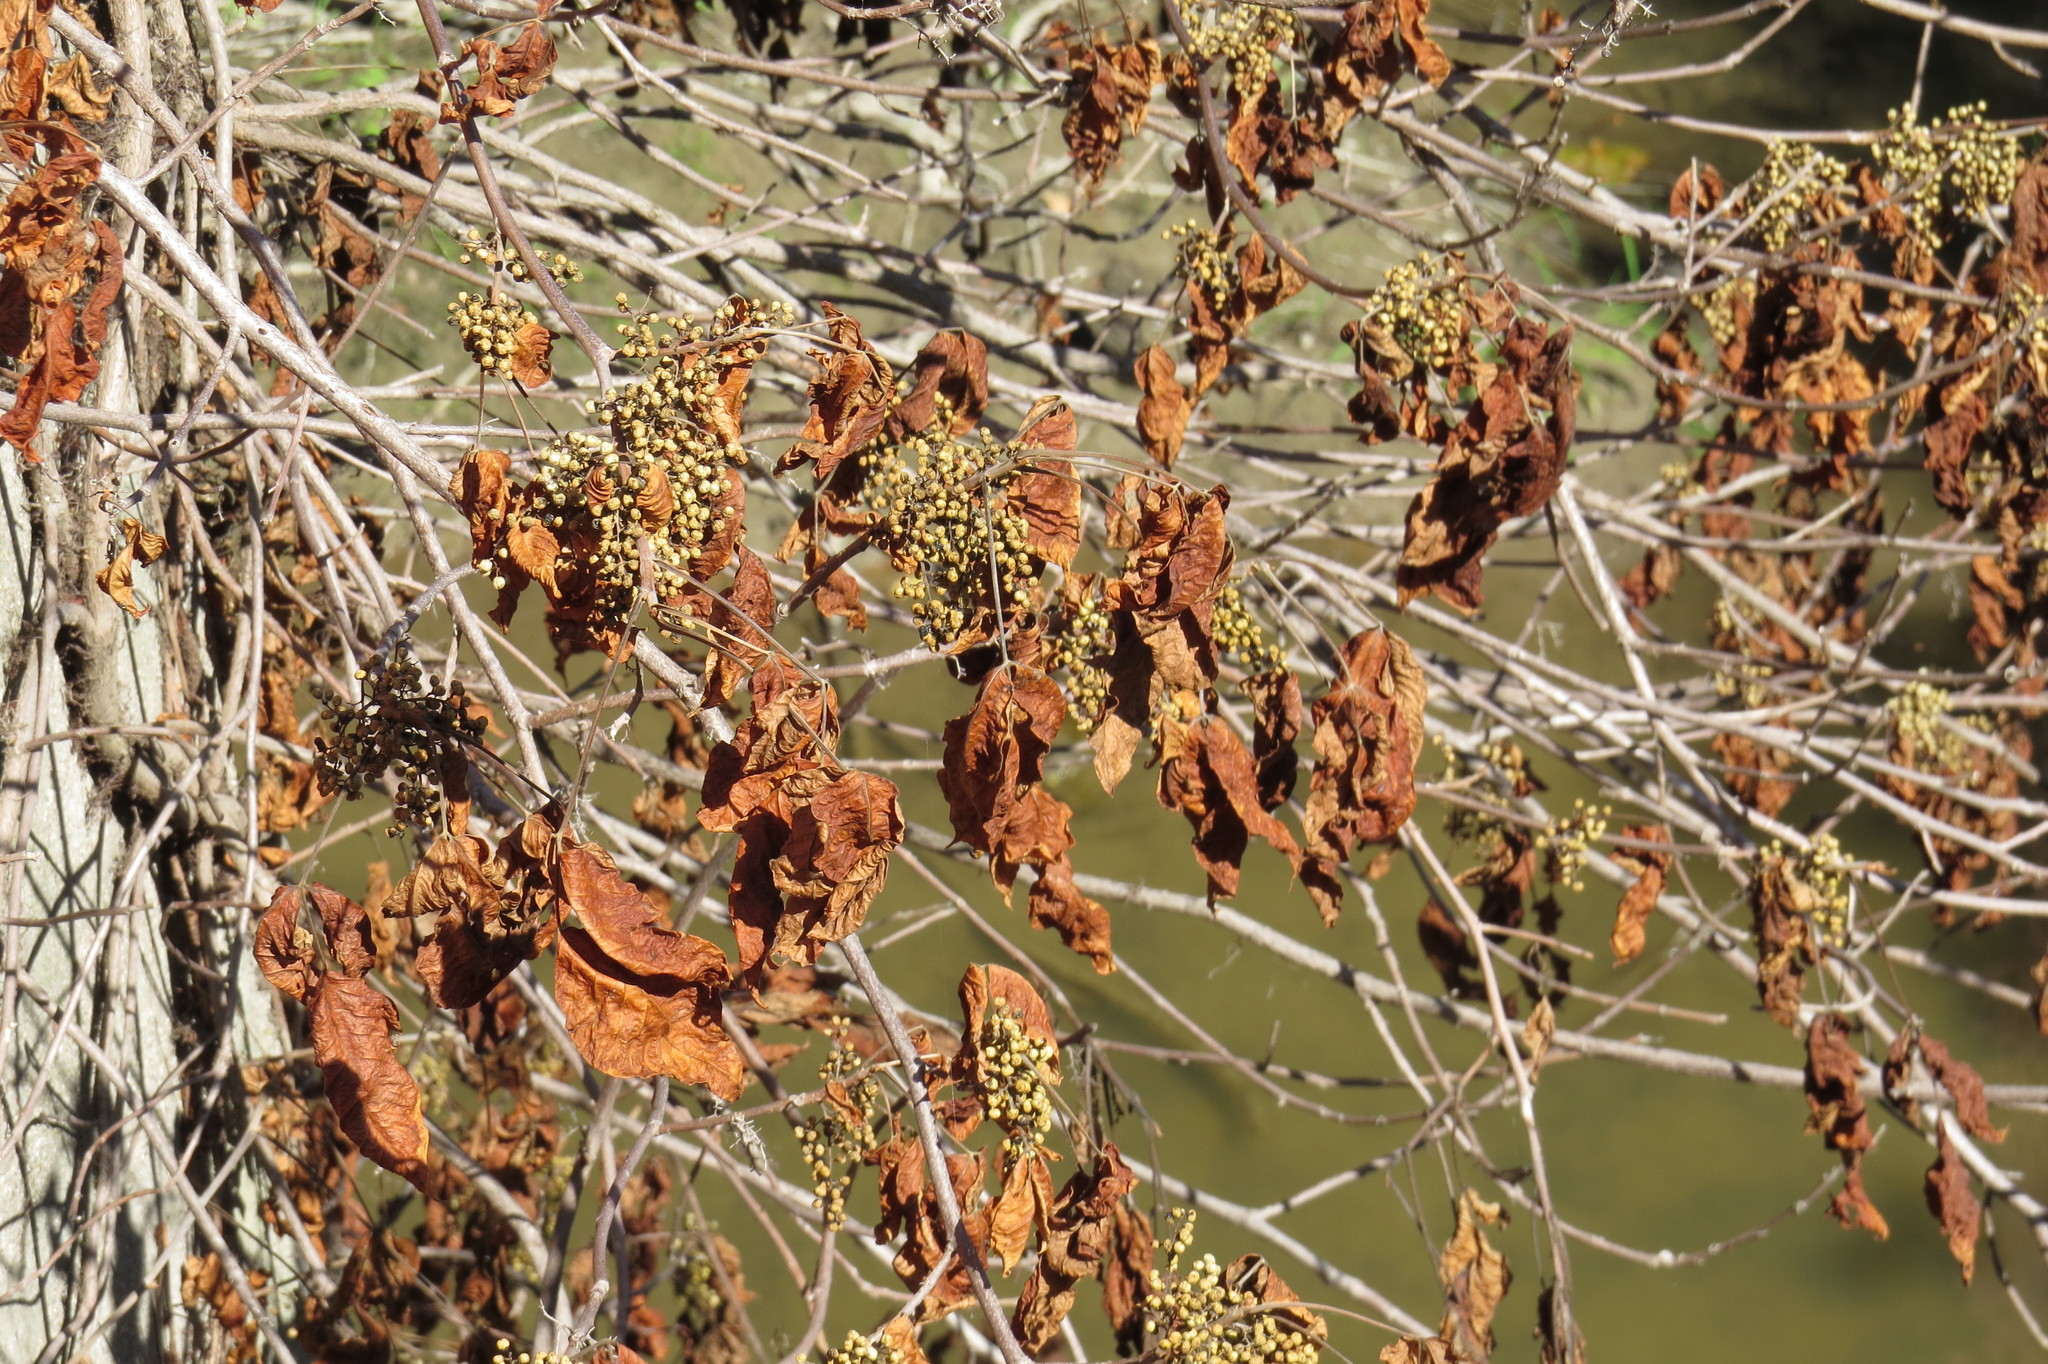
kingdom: Plantae
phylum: Tracheophyta
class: Magnoliopsida
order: Sapindales
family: Anacardiaceae
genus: Toxicodendron
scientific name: Toxicodendron radicans
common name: Poison ivy
